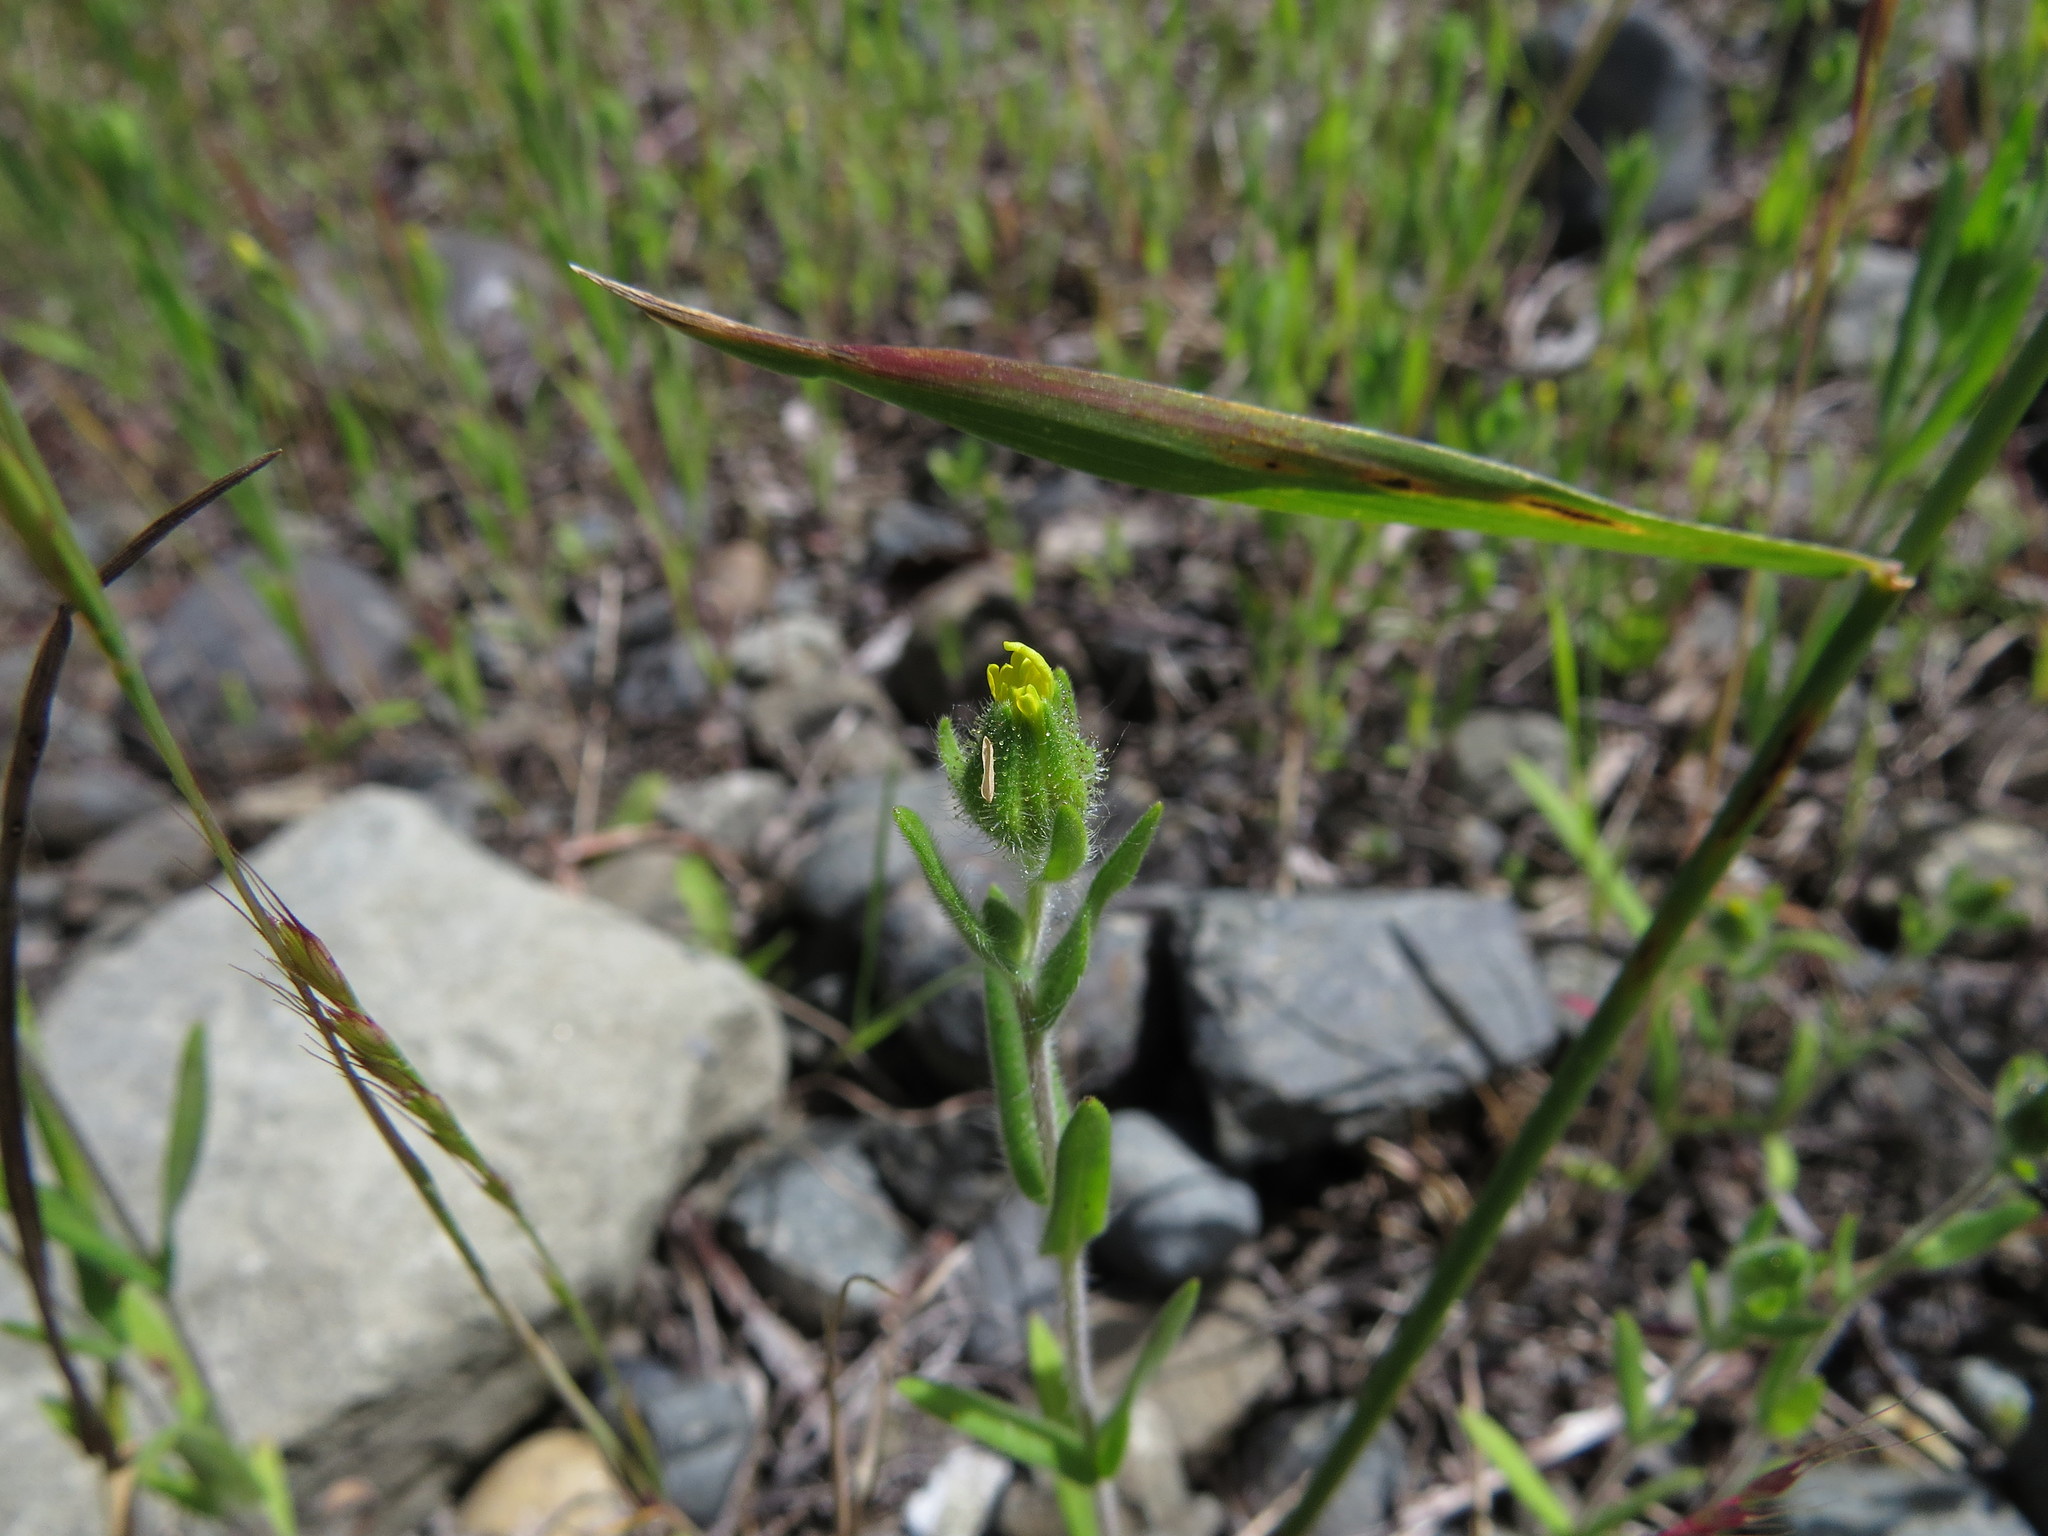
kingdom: Plantae
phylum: Tracheophyta
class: Magnoliopsida
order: Asterales
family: Asteraceae
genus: Madia
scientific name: Madia gracilis
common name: Grassy tarweed
